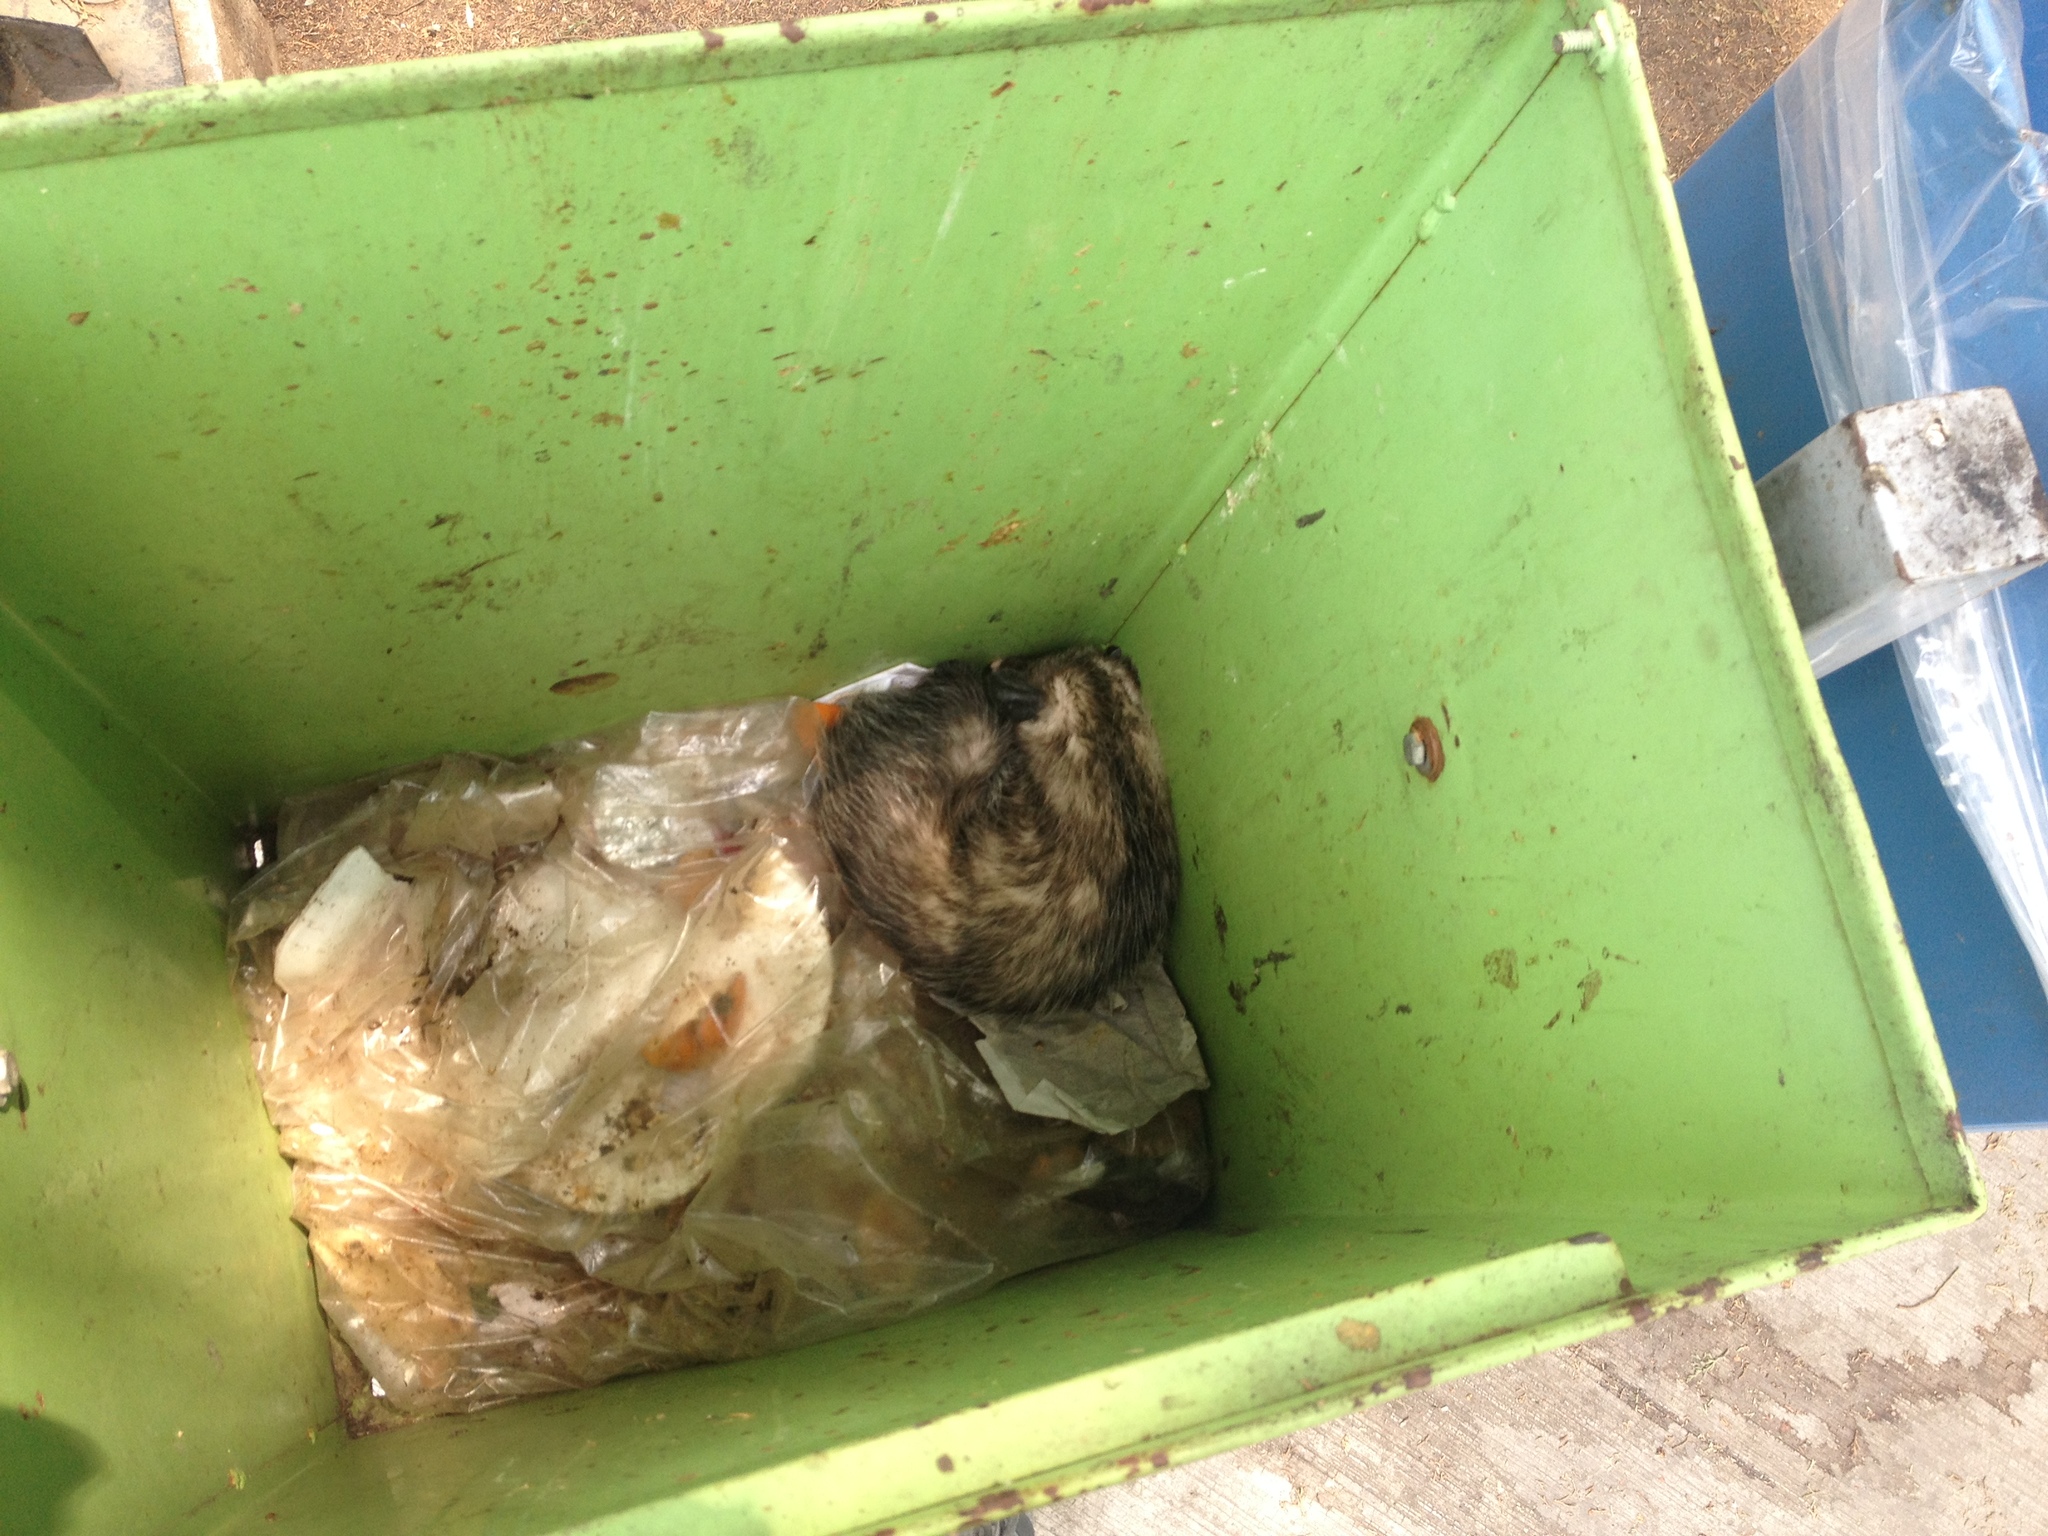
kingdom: Animalia
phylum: Chordata
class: Mammalia
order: Didelphimorphia
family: Didelphidae
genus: Didelphis
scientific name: Didelphis virginiana
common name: Virginia opossum
